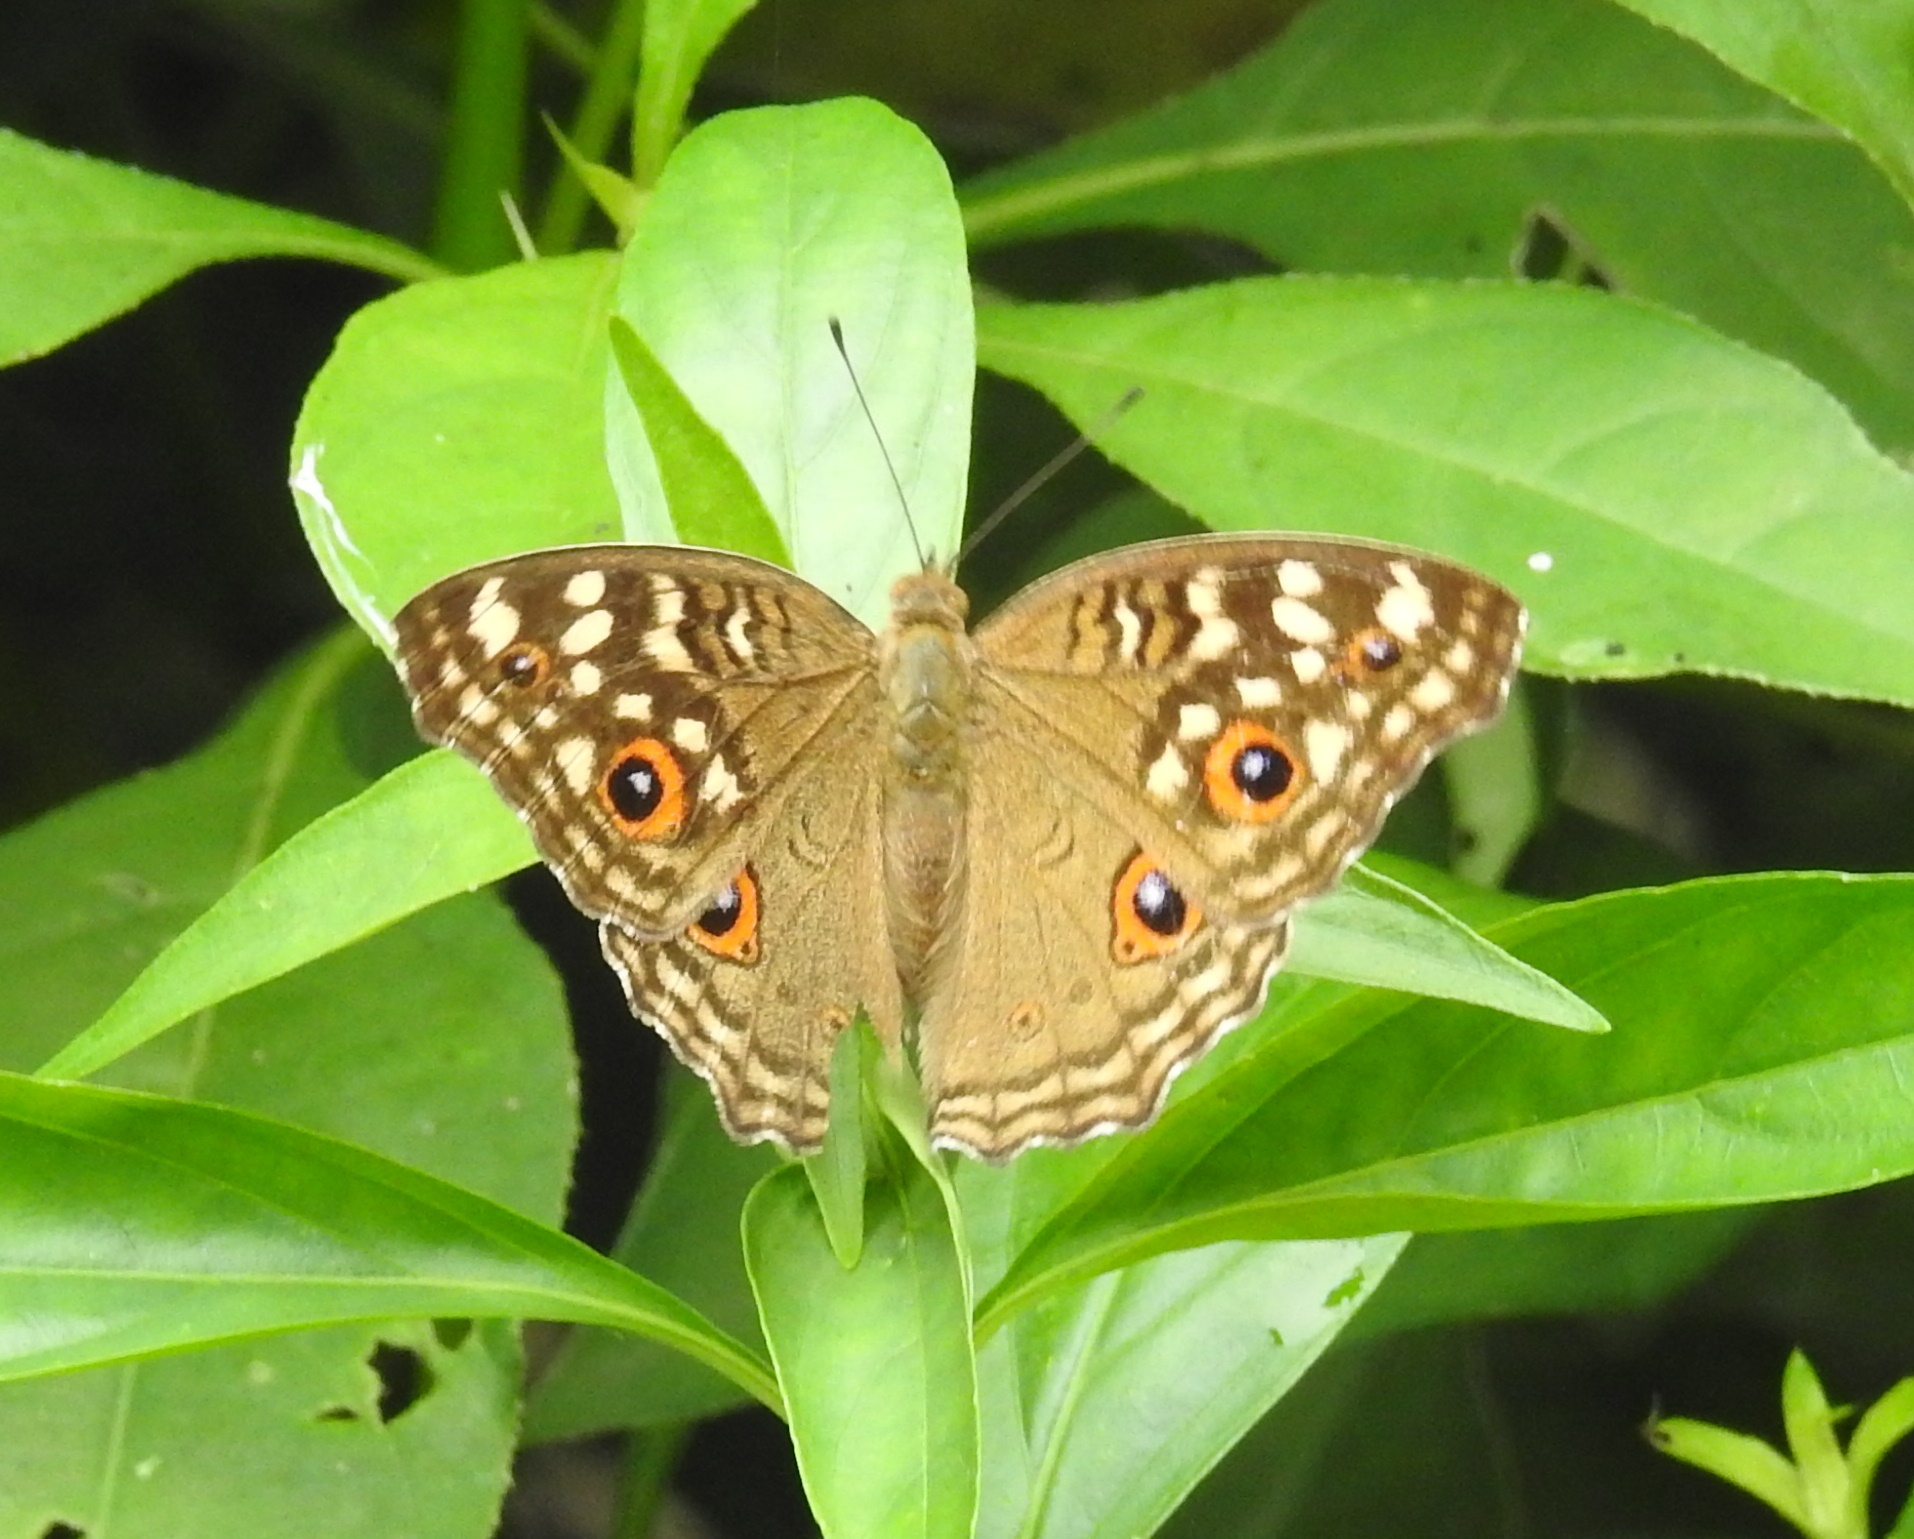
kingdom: Animalia
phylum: Arthropoda
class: Insecta
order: Lepidoptera
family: Nymphalidae
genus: Junonia
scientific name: Junonia lemonias
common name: Lemon pansy
